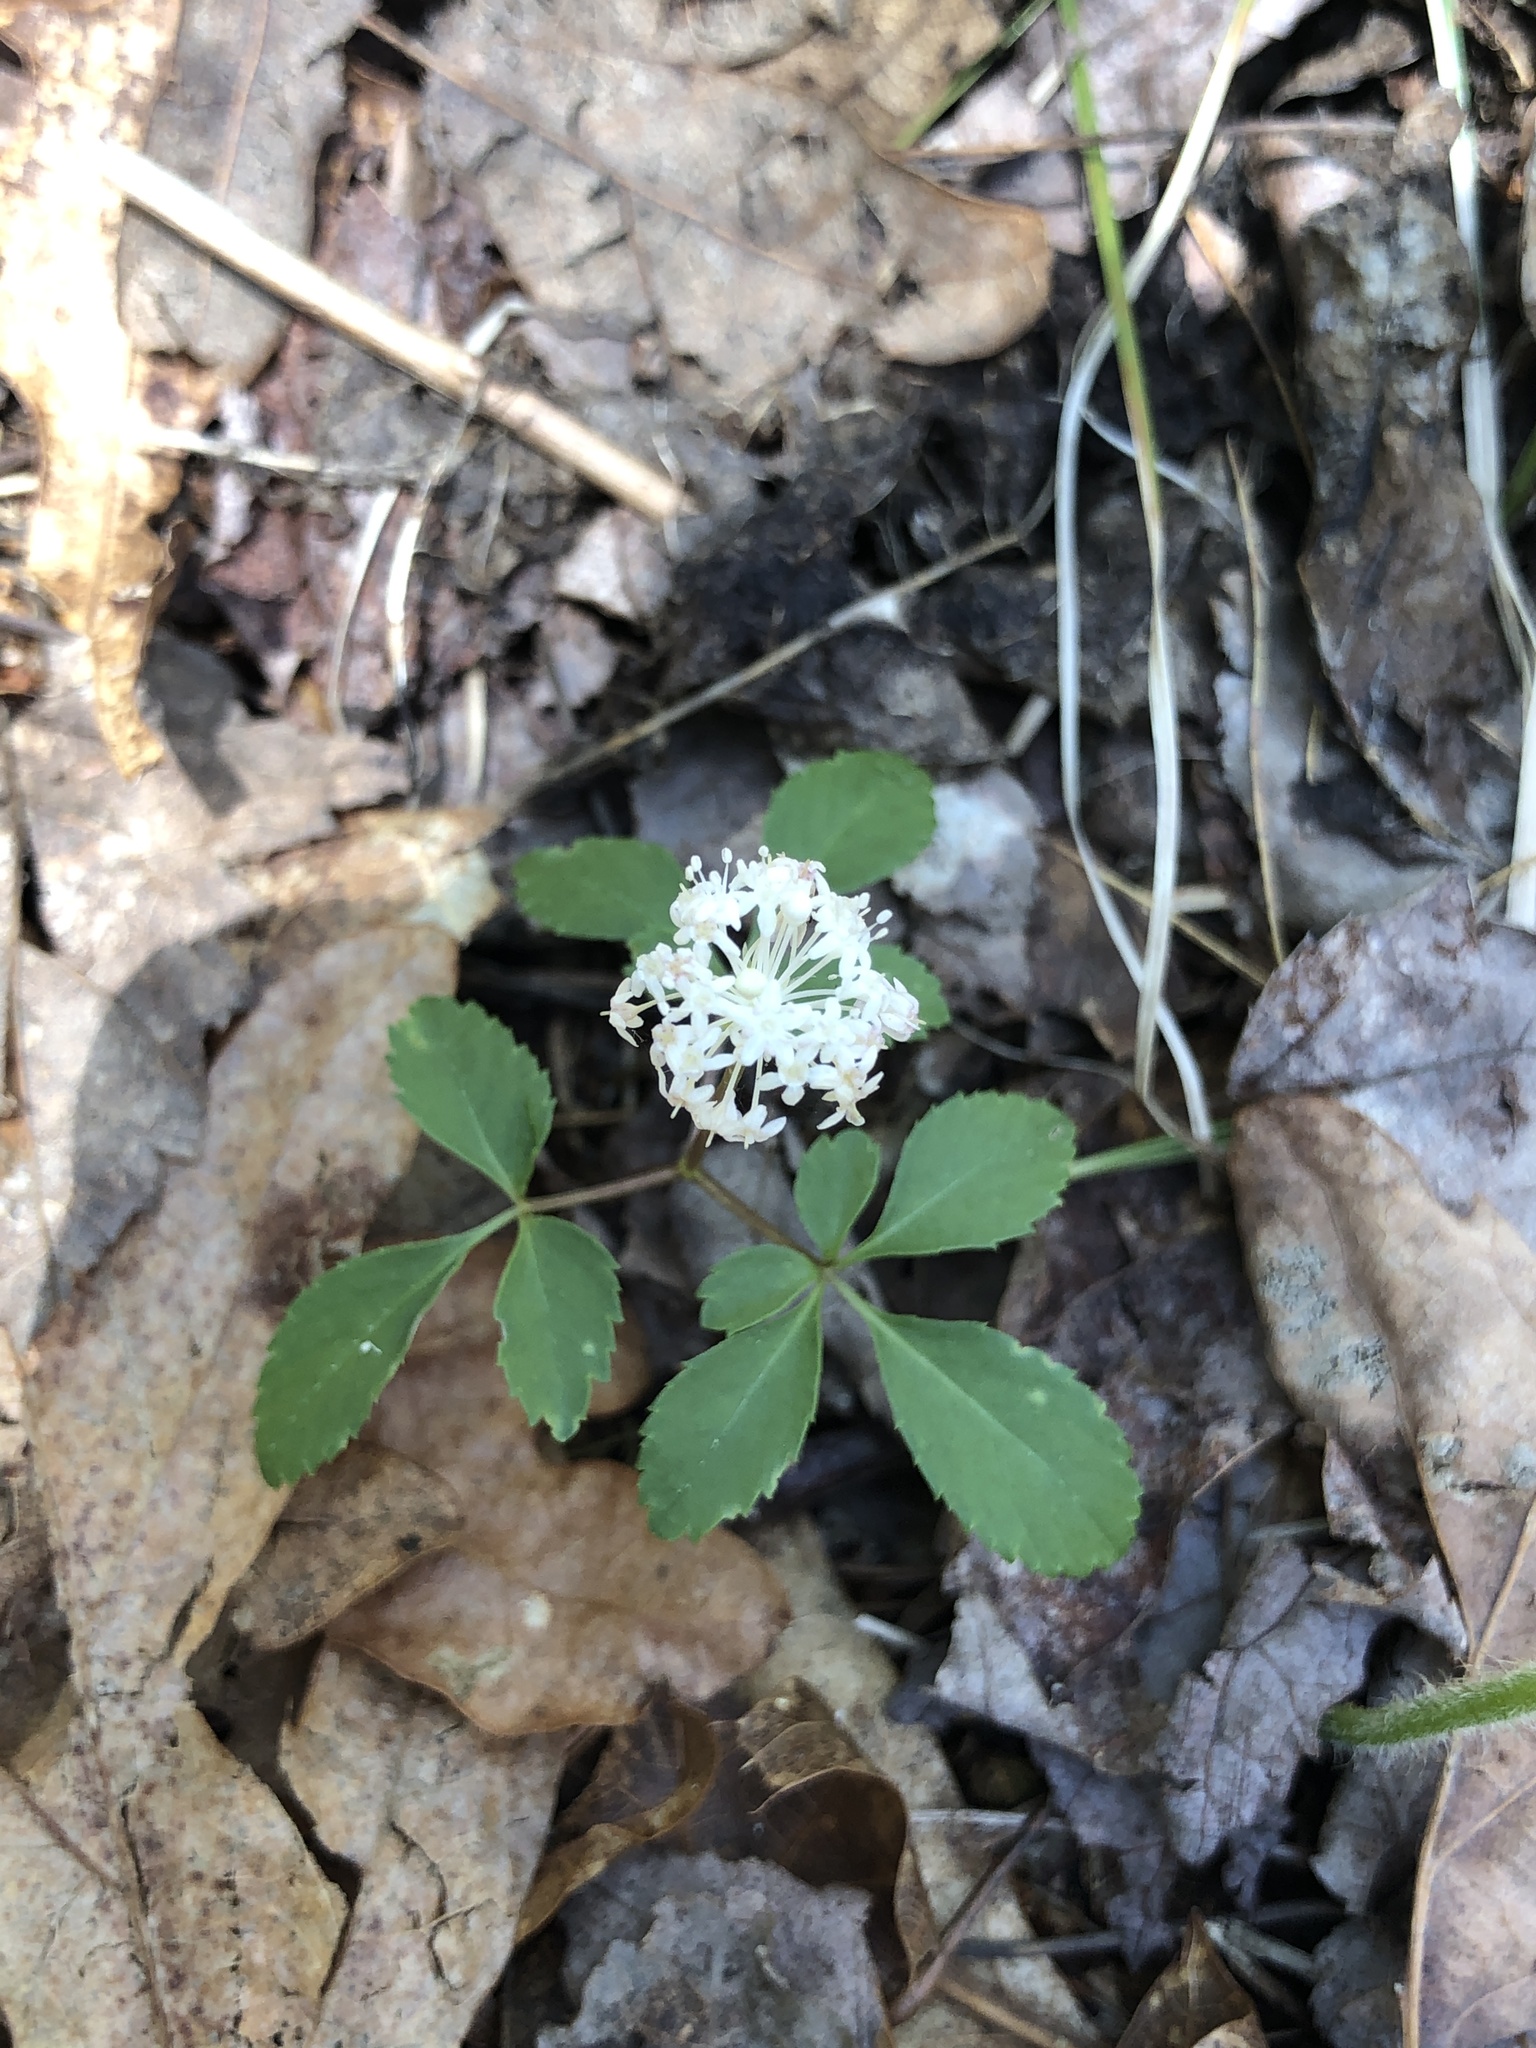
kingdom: Plantae
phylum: Tracheophyta
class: Magnoliopsida
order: Apiales
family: Araliaceae
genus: Panax
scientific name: Panax trifolius
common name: Dwarf ginseng
